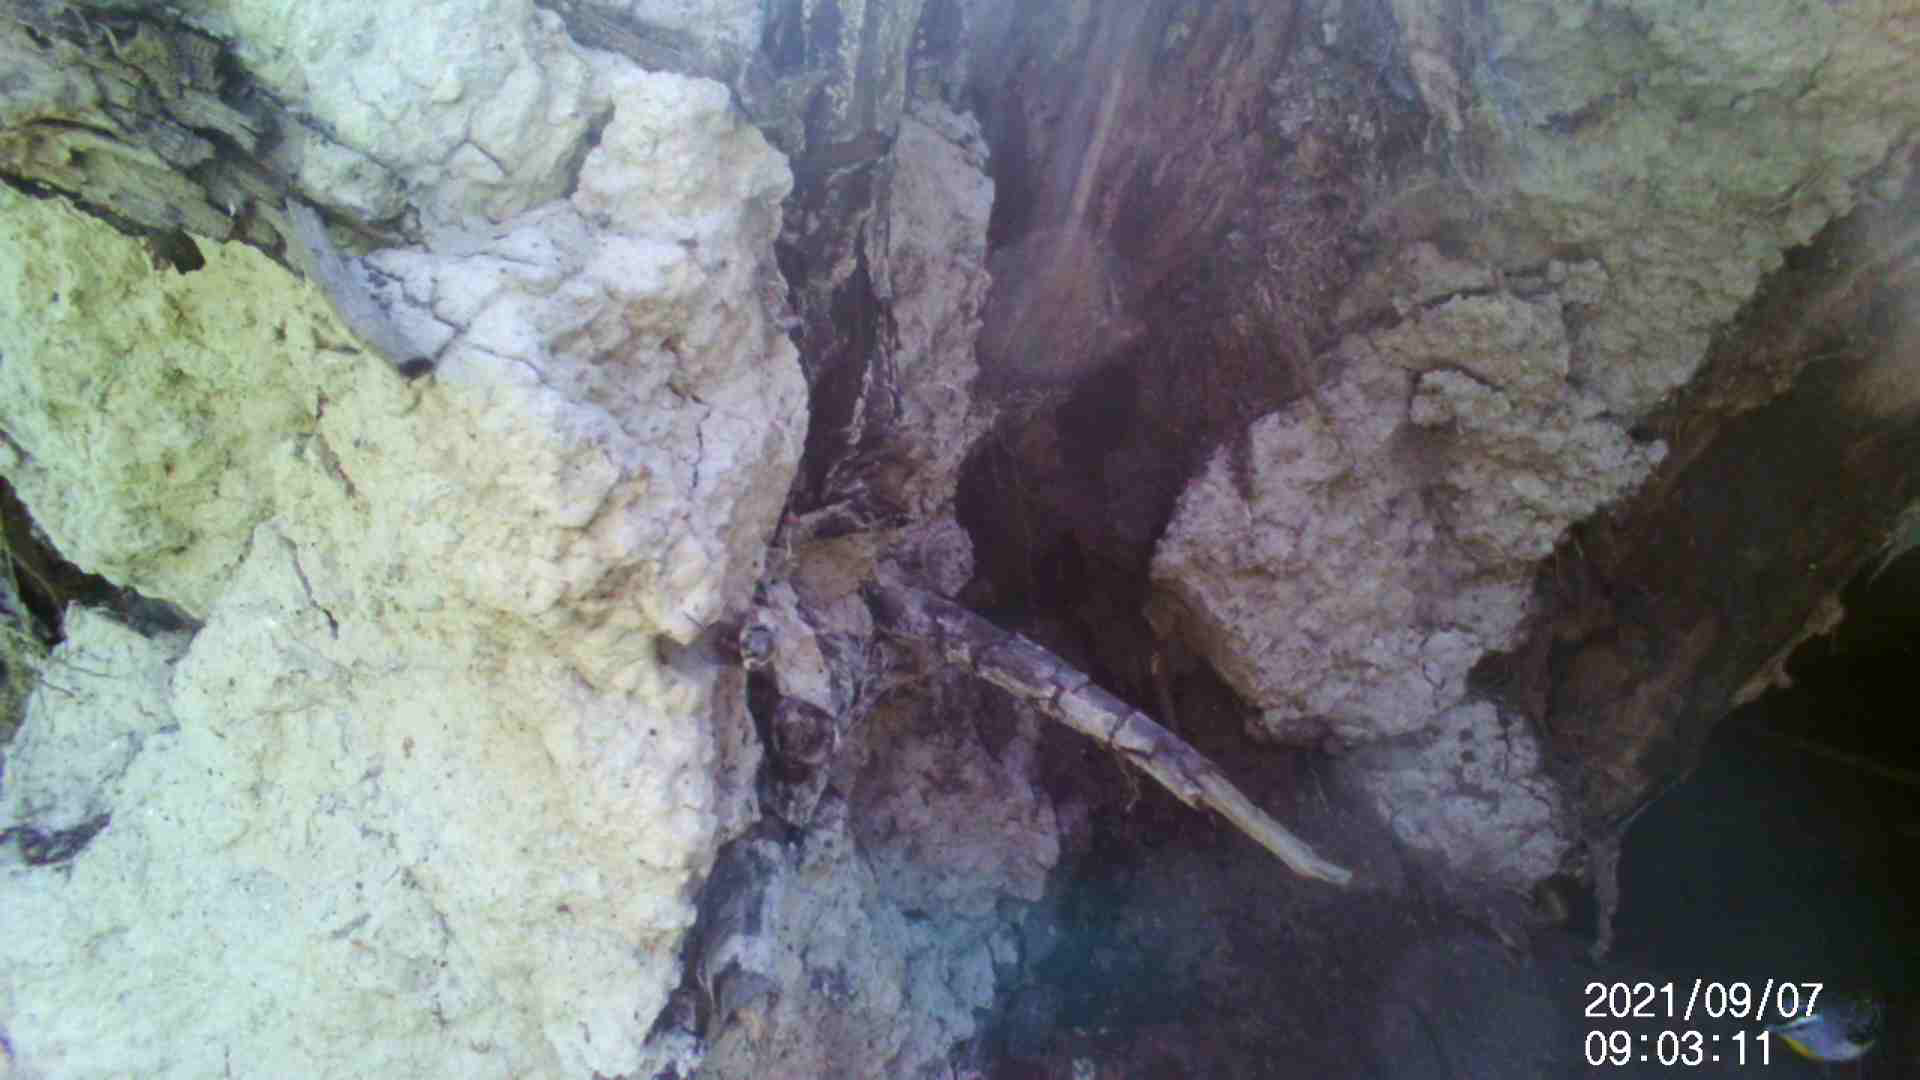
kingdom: Animalia
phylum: Chordata
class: Aves
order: Passeriformes
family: Pardalotidae
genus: Pardalotus
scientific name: Pardalotus punctatus
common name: Spotted pardalote
